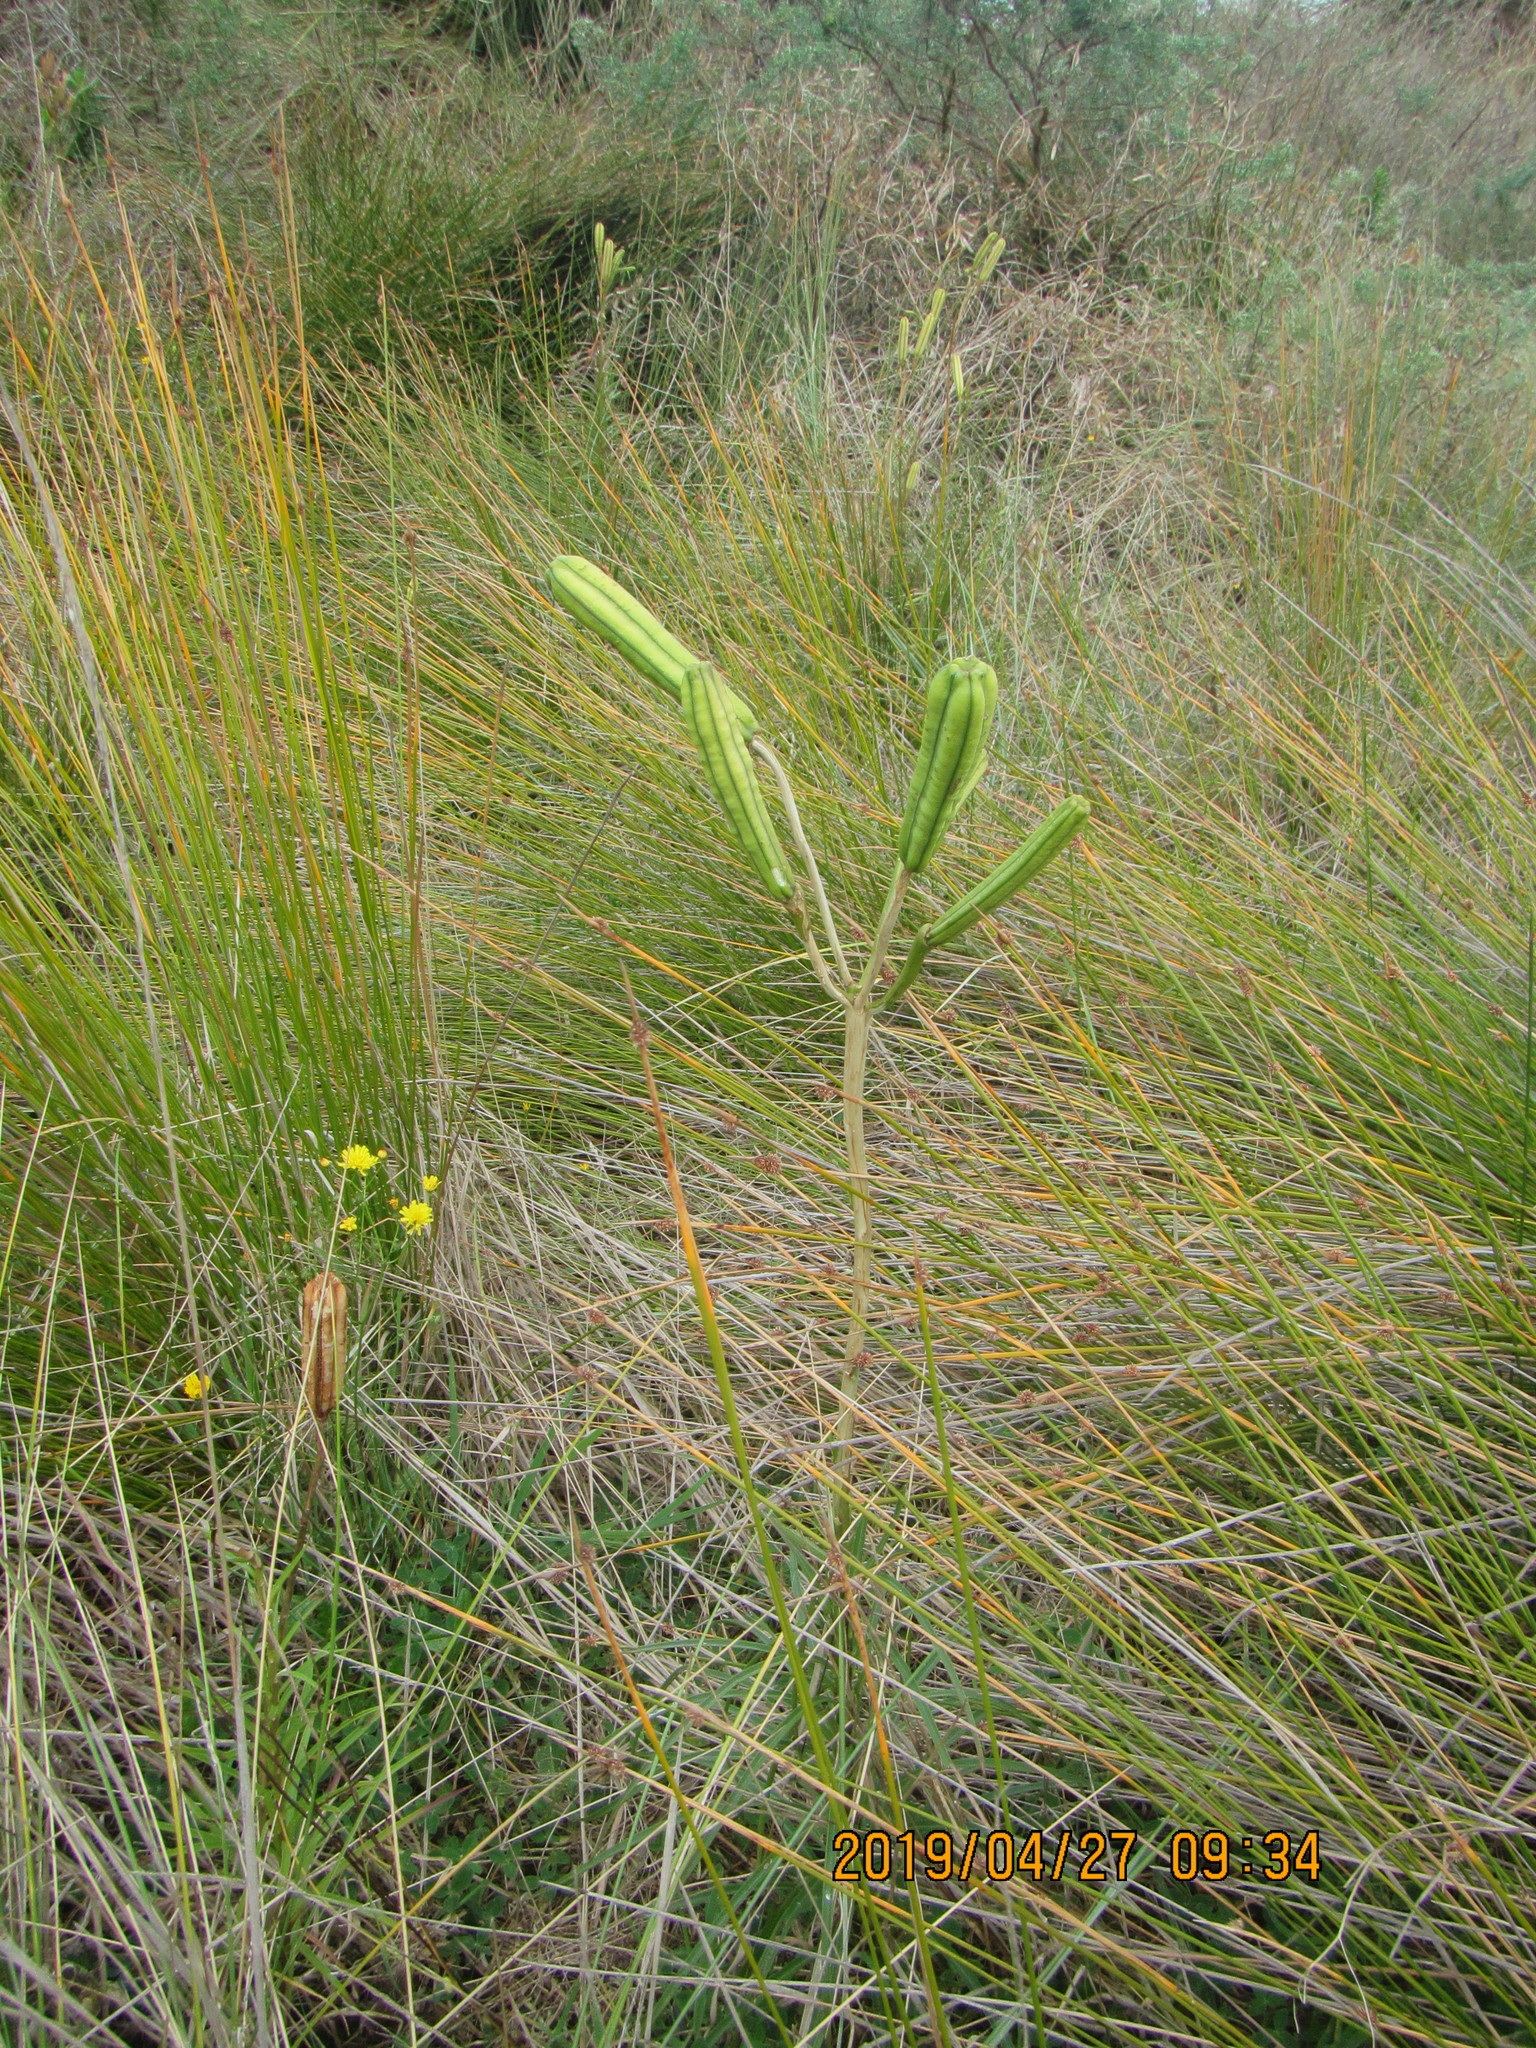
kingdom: Plantae
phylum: Tracheophyta
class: Liliopsida
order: Liliales
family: Liliaceae
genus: Lilium
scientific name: Lilium formosanum
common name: Formosa lily
